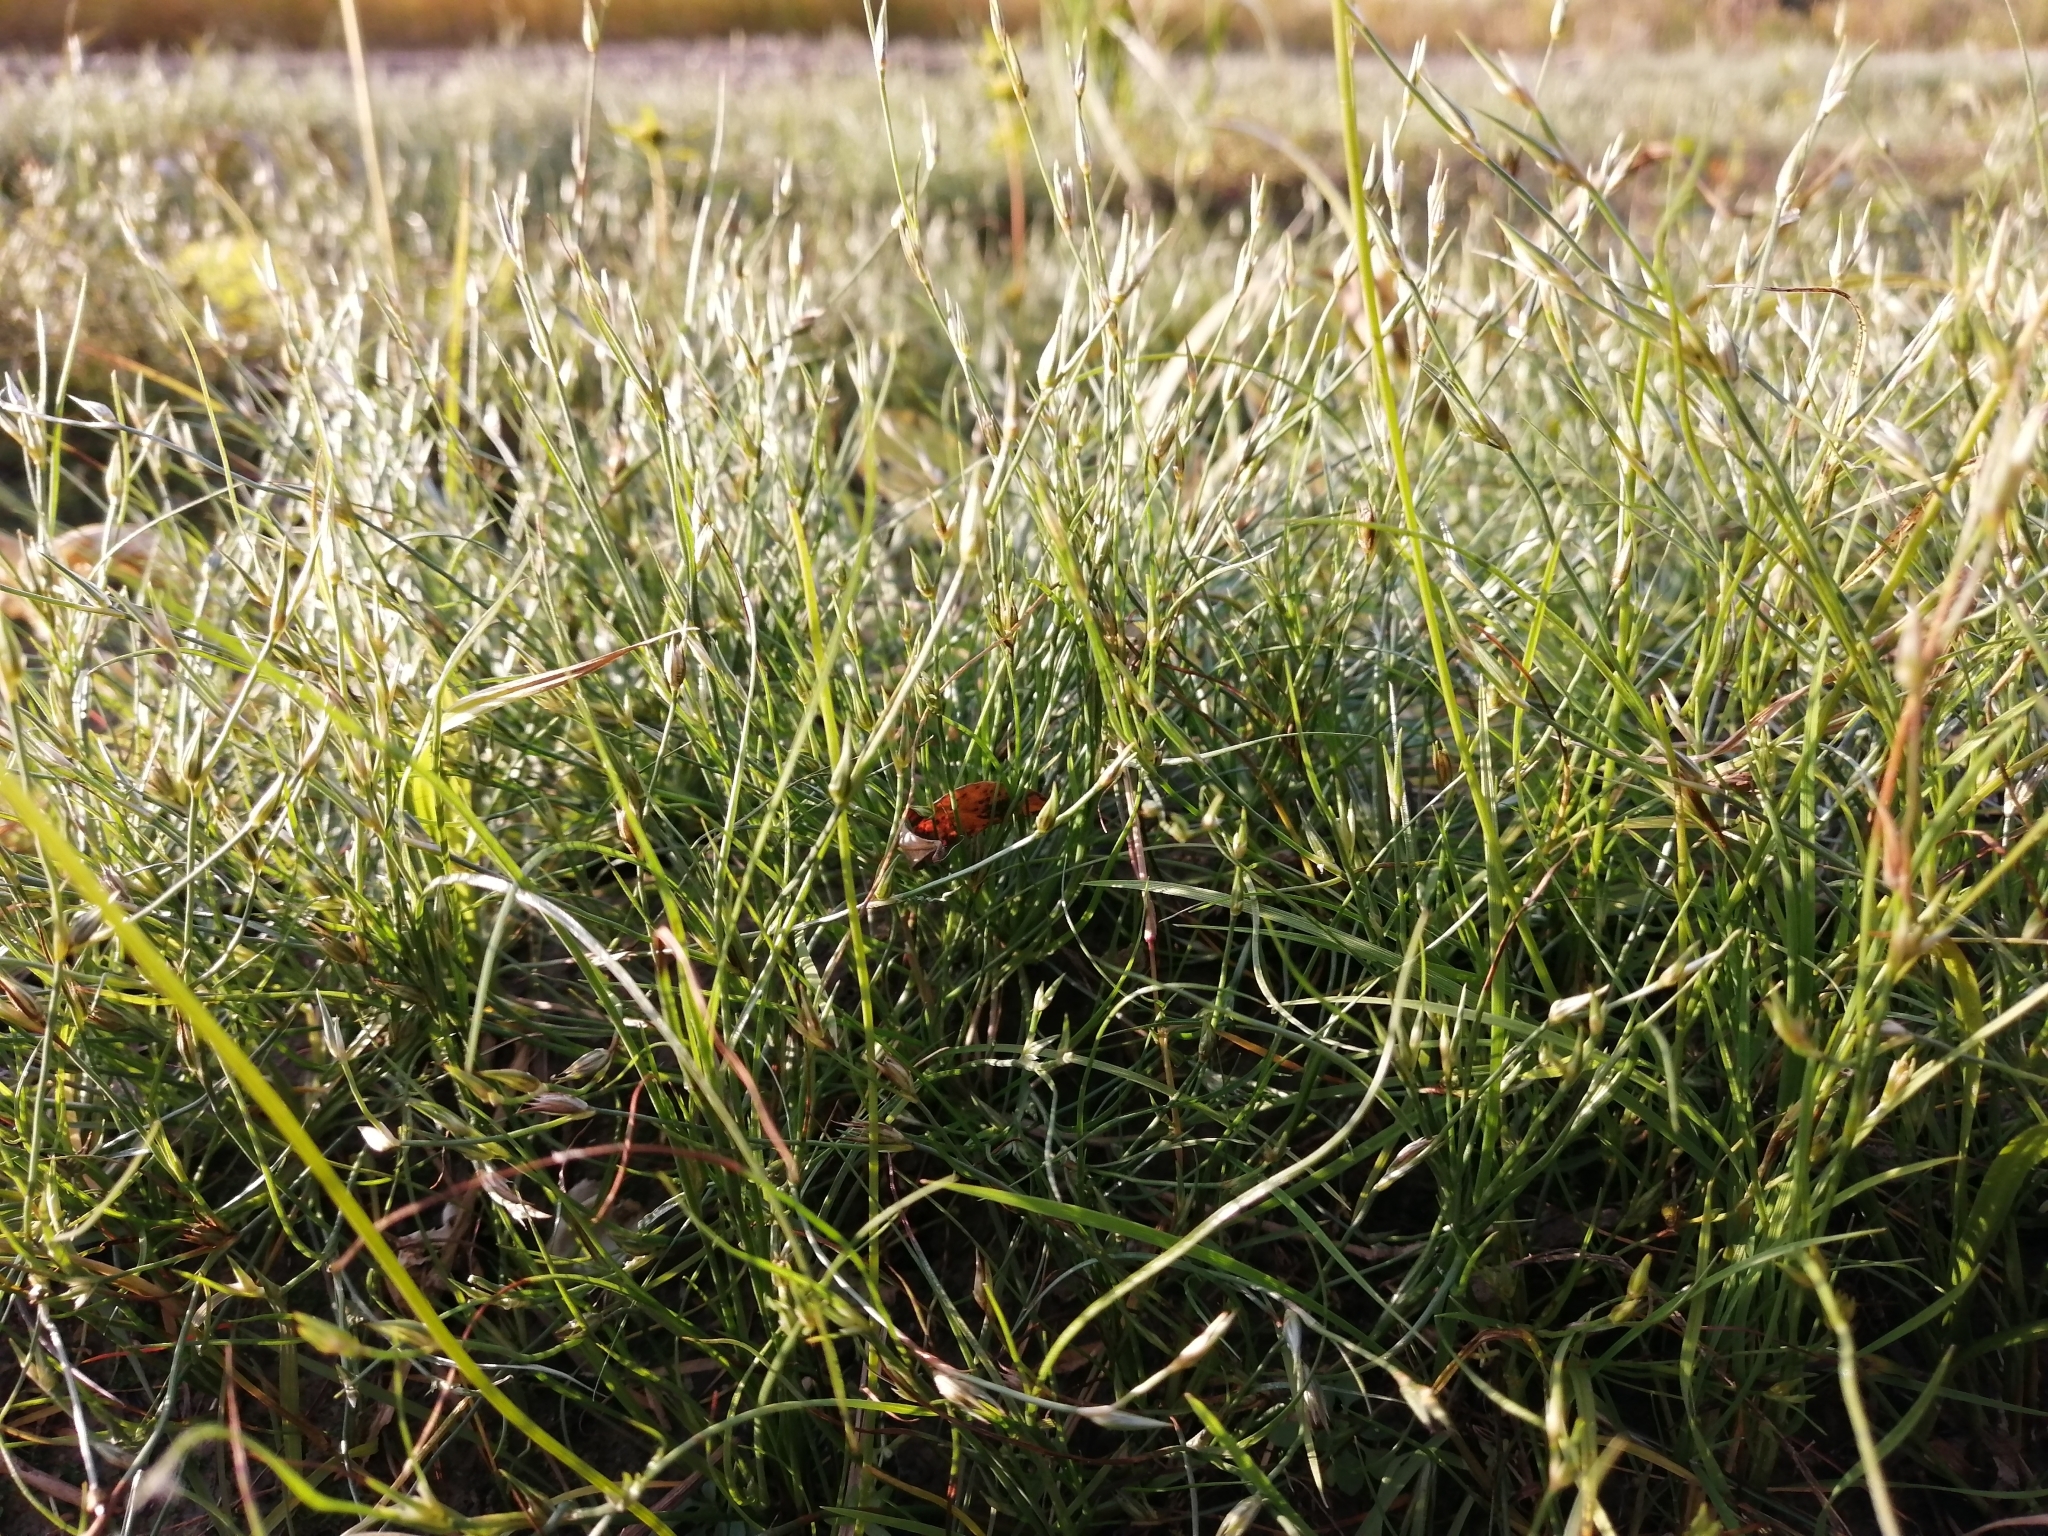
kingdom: Plantae
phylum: Tracheophyta
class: Liliopsida
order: Poales
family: Juncaceae
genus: Juncus
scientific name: Juncus bufonius
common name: Toad rush
